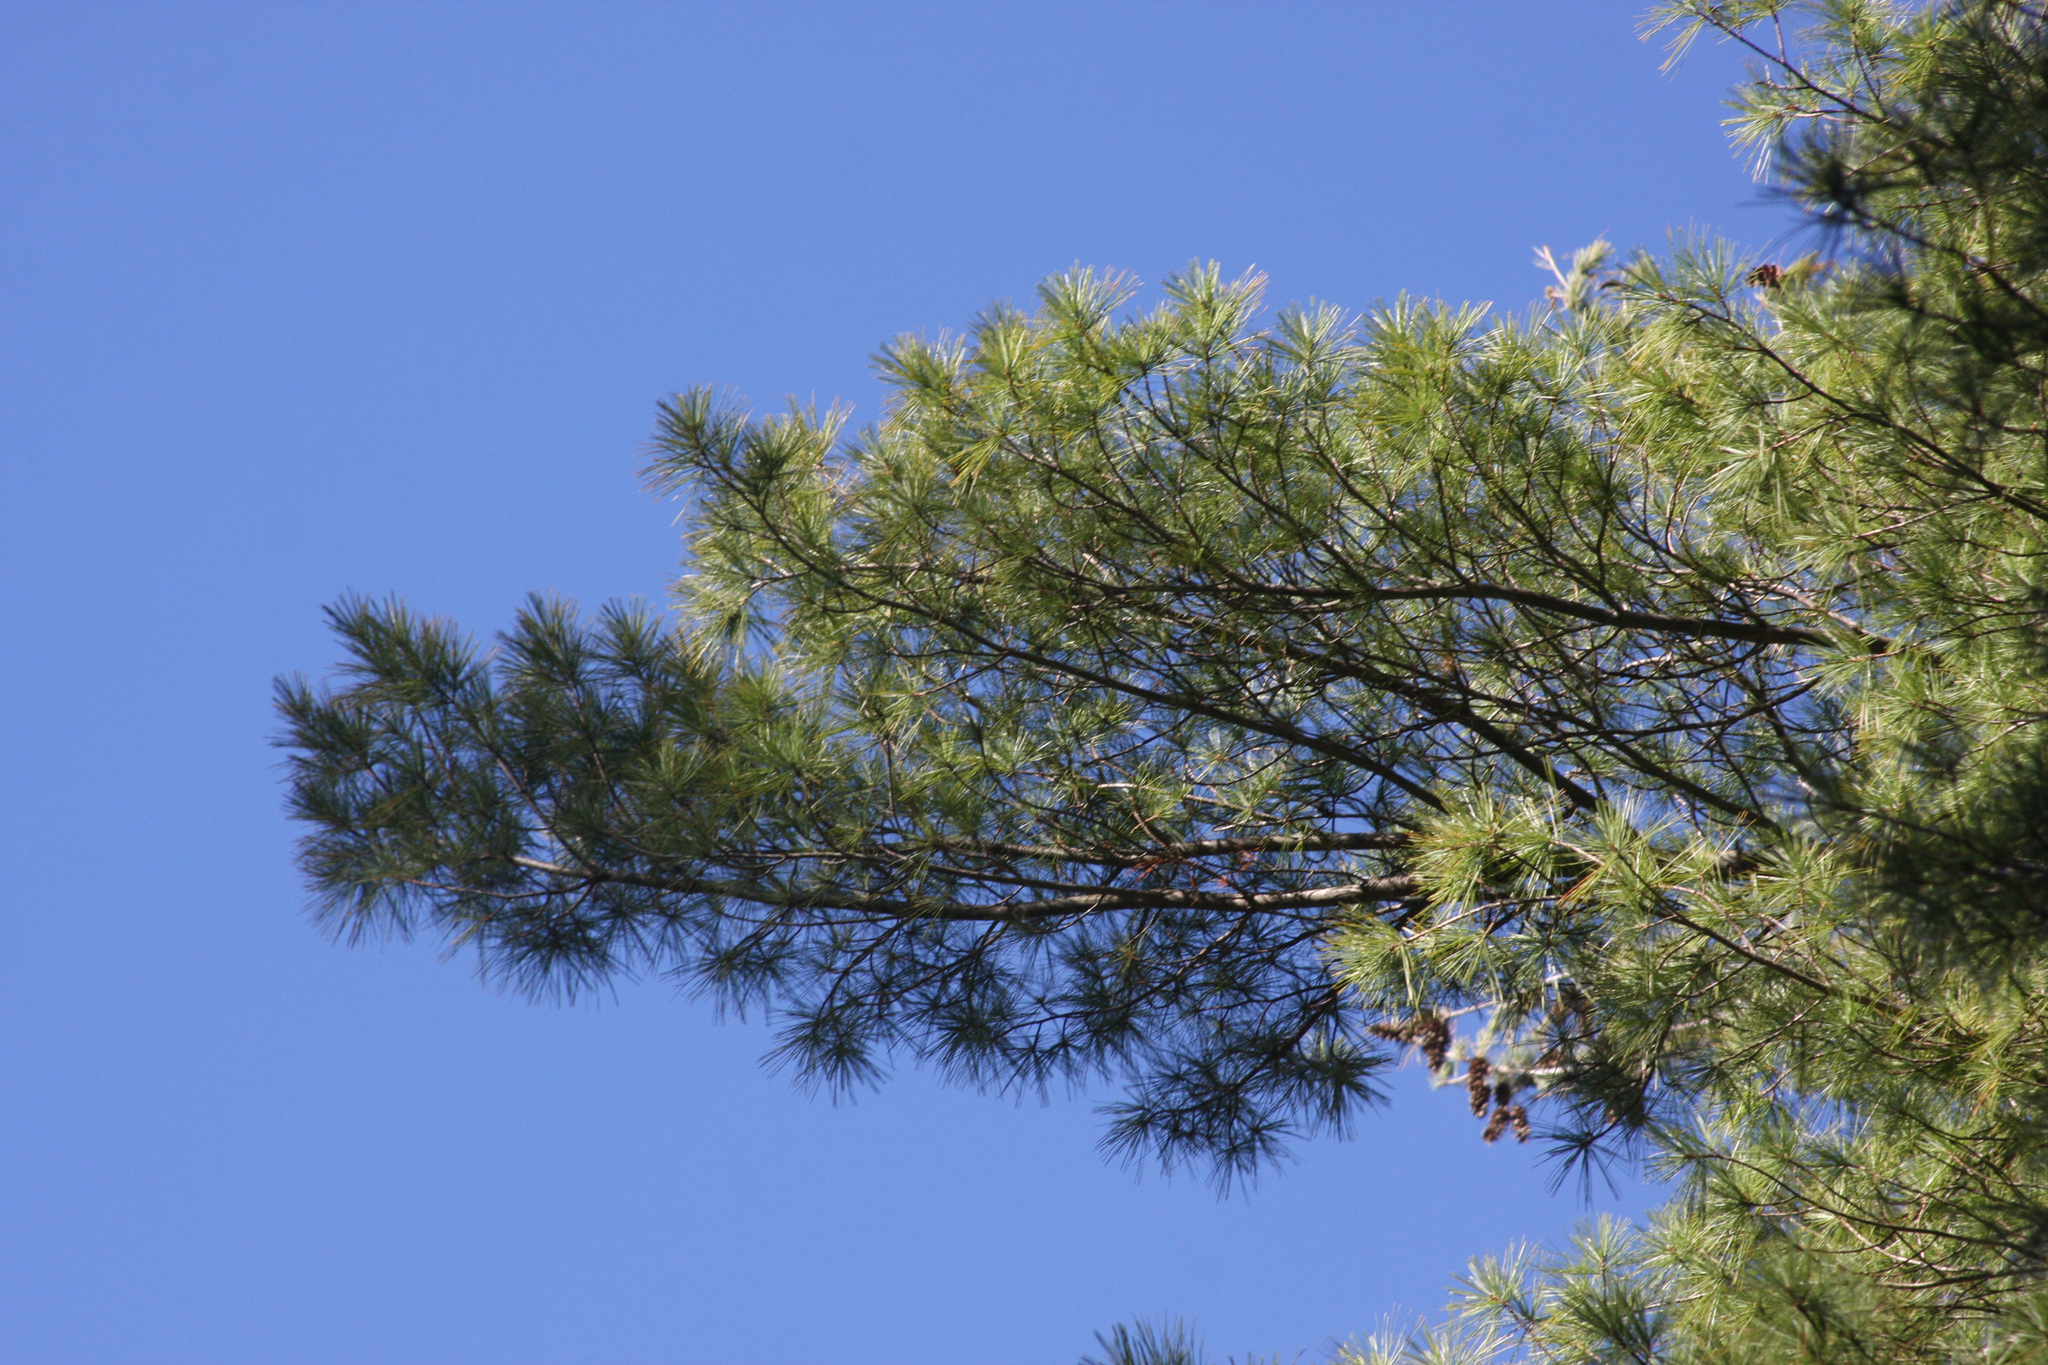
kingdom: Plantae
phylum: Tracheophyta
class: Pinopsida
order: Pinales
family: Pinaceae
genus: Pinus
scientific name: Pinus strobus
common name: Weymouth pine
